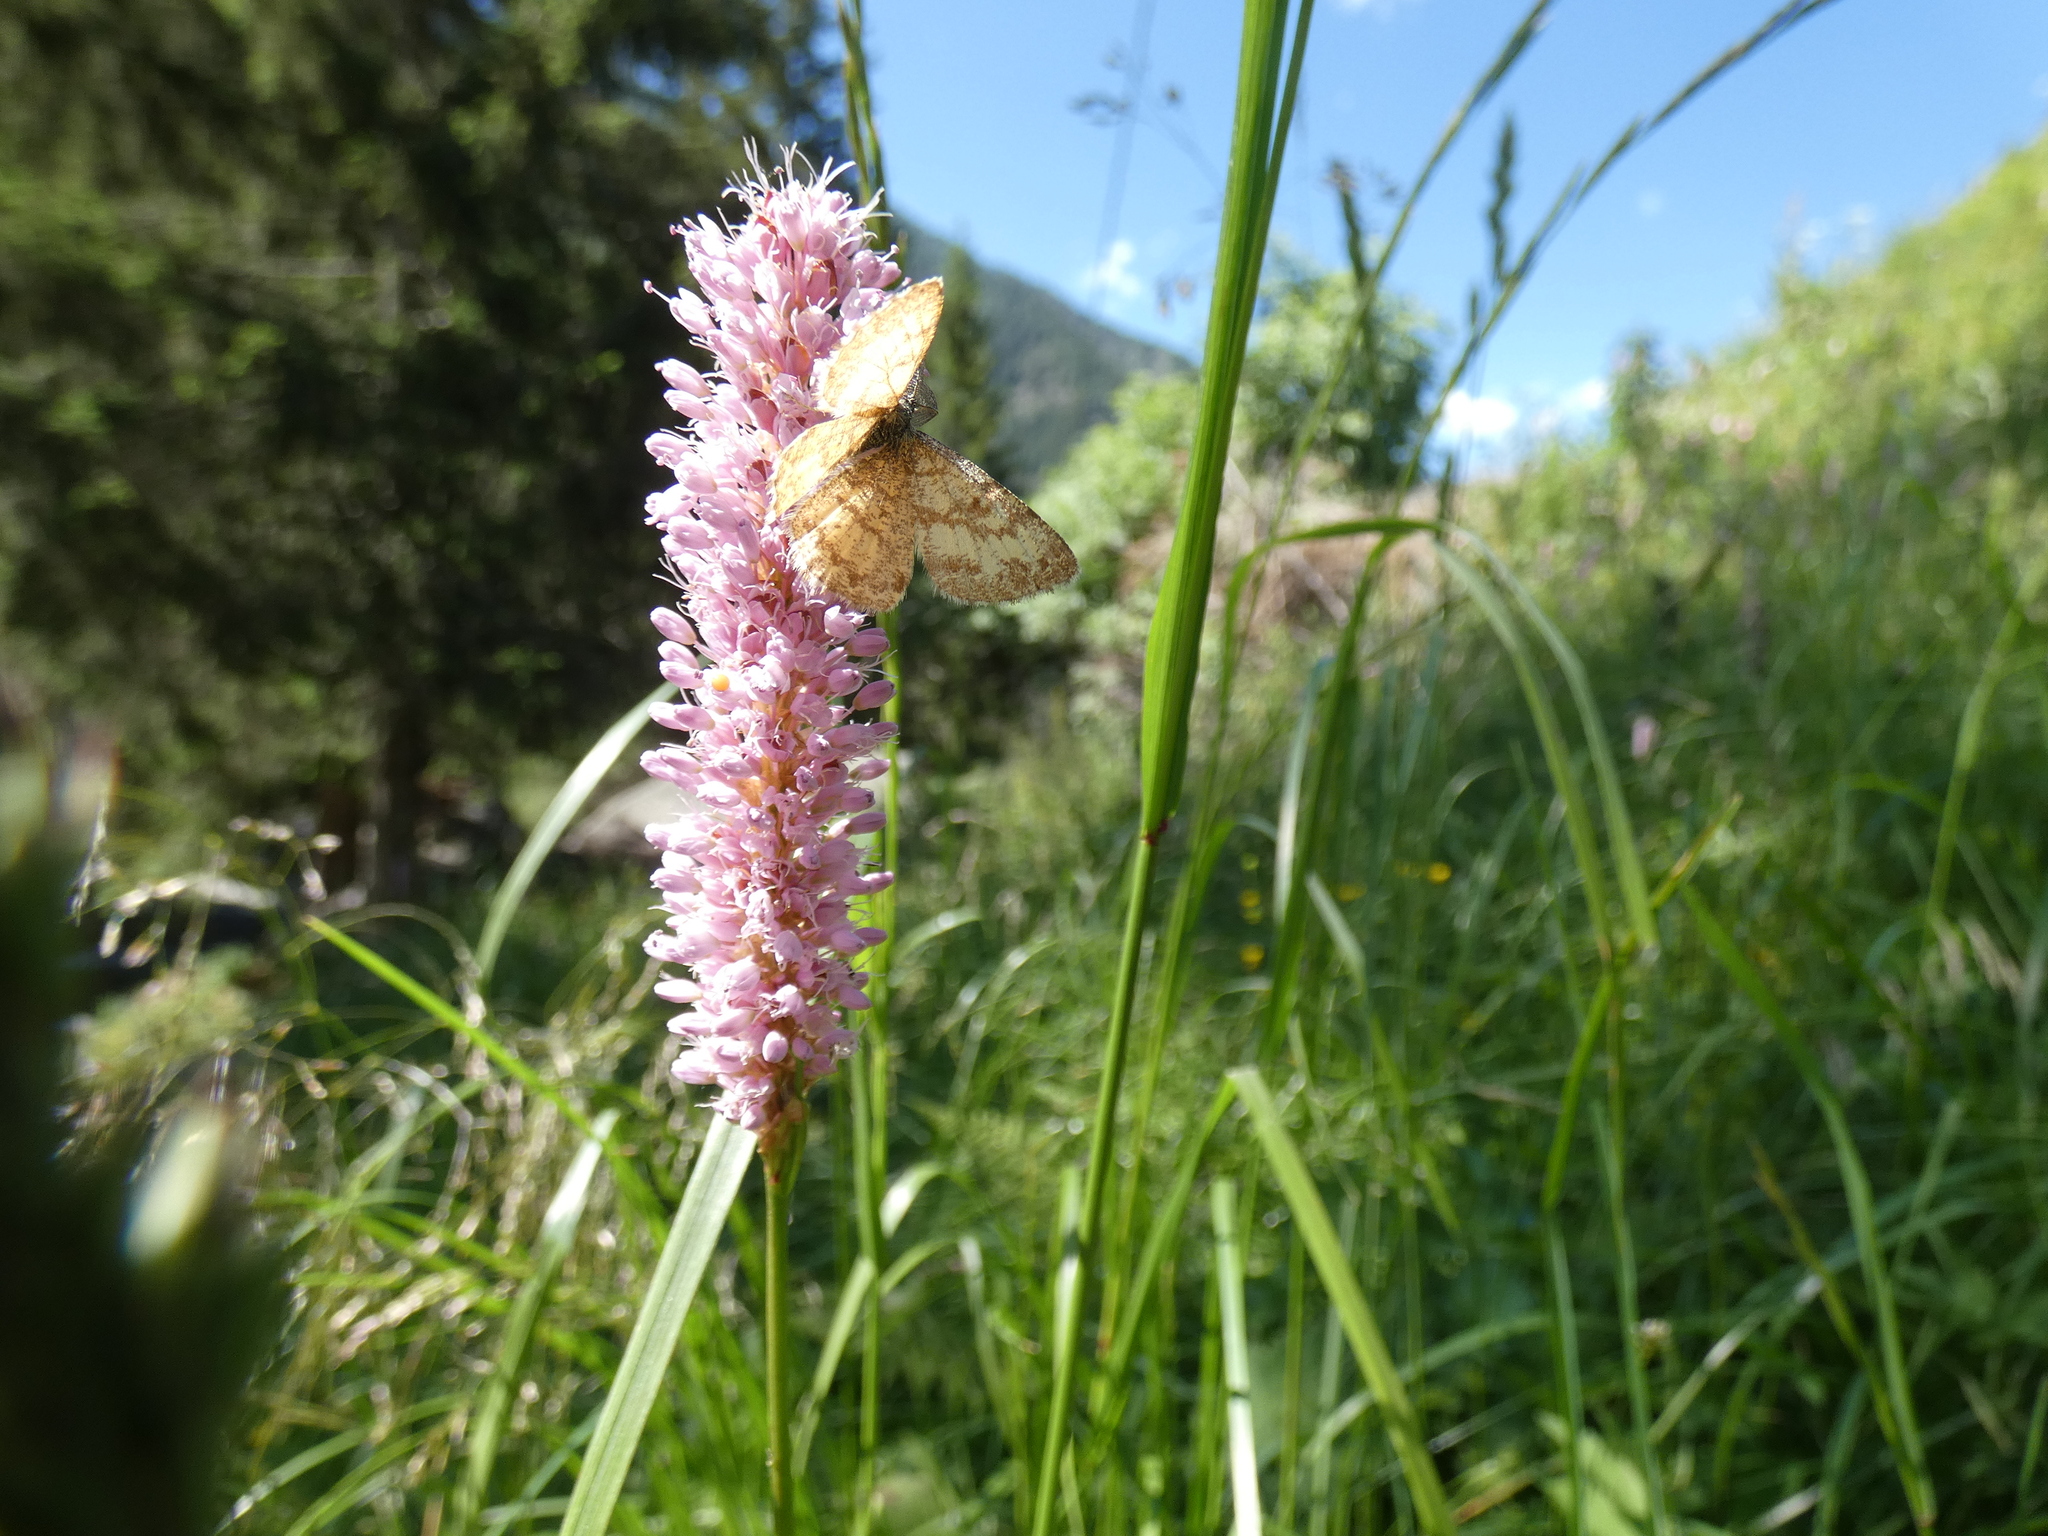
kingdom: Animalia
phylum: Arthropoda
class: Insecta
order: Lepidoptera
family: Geometridae
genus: Ematurga
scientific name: Ematurga atomaria
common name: Common heath
